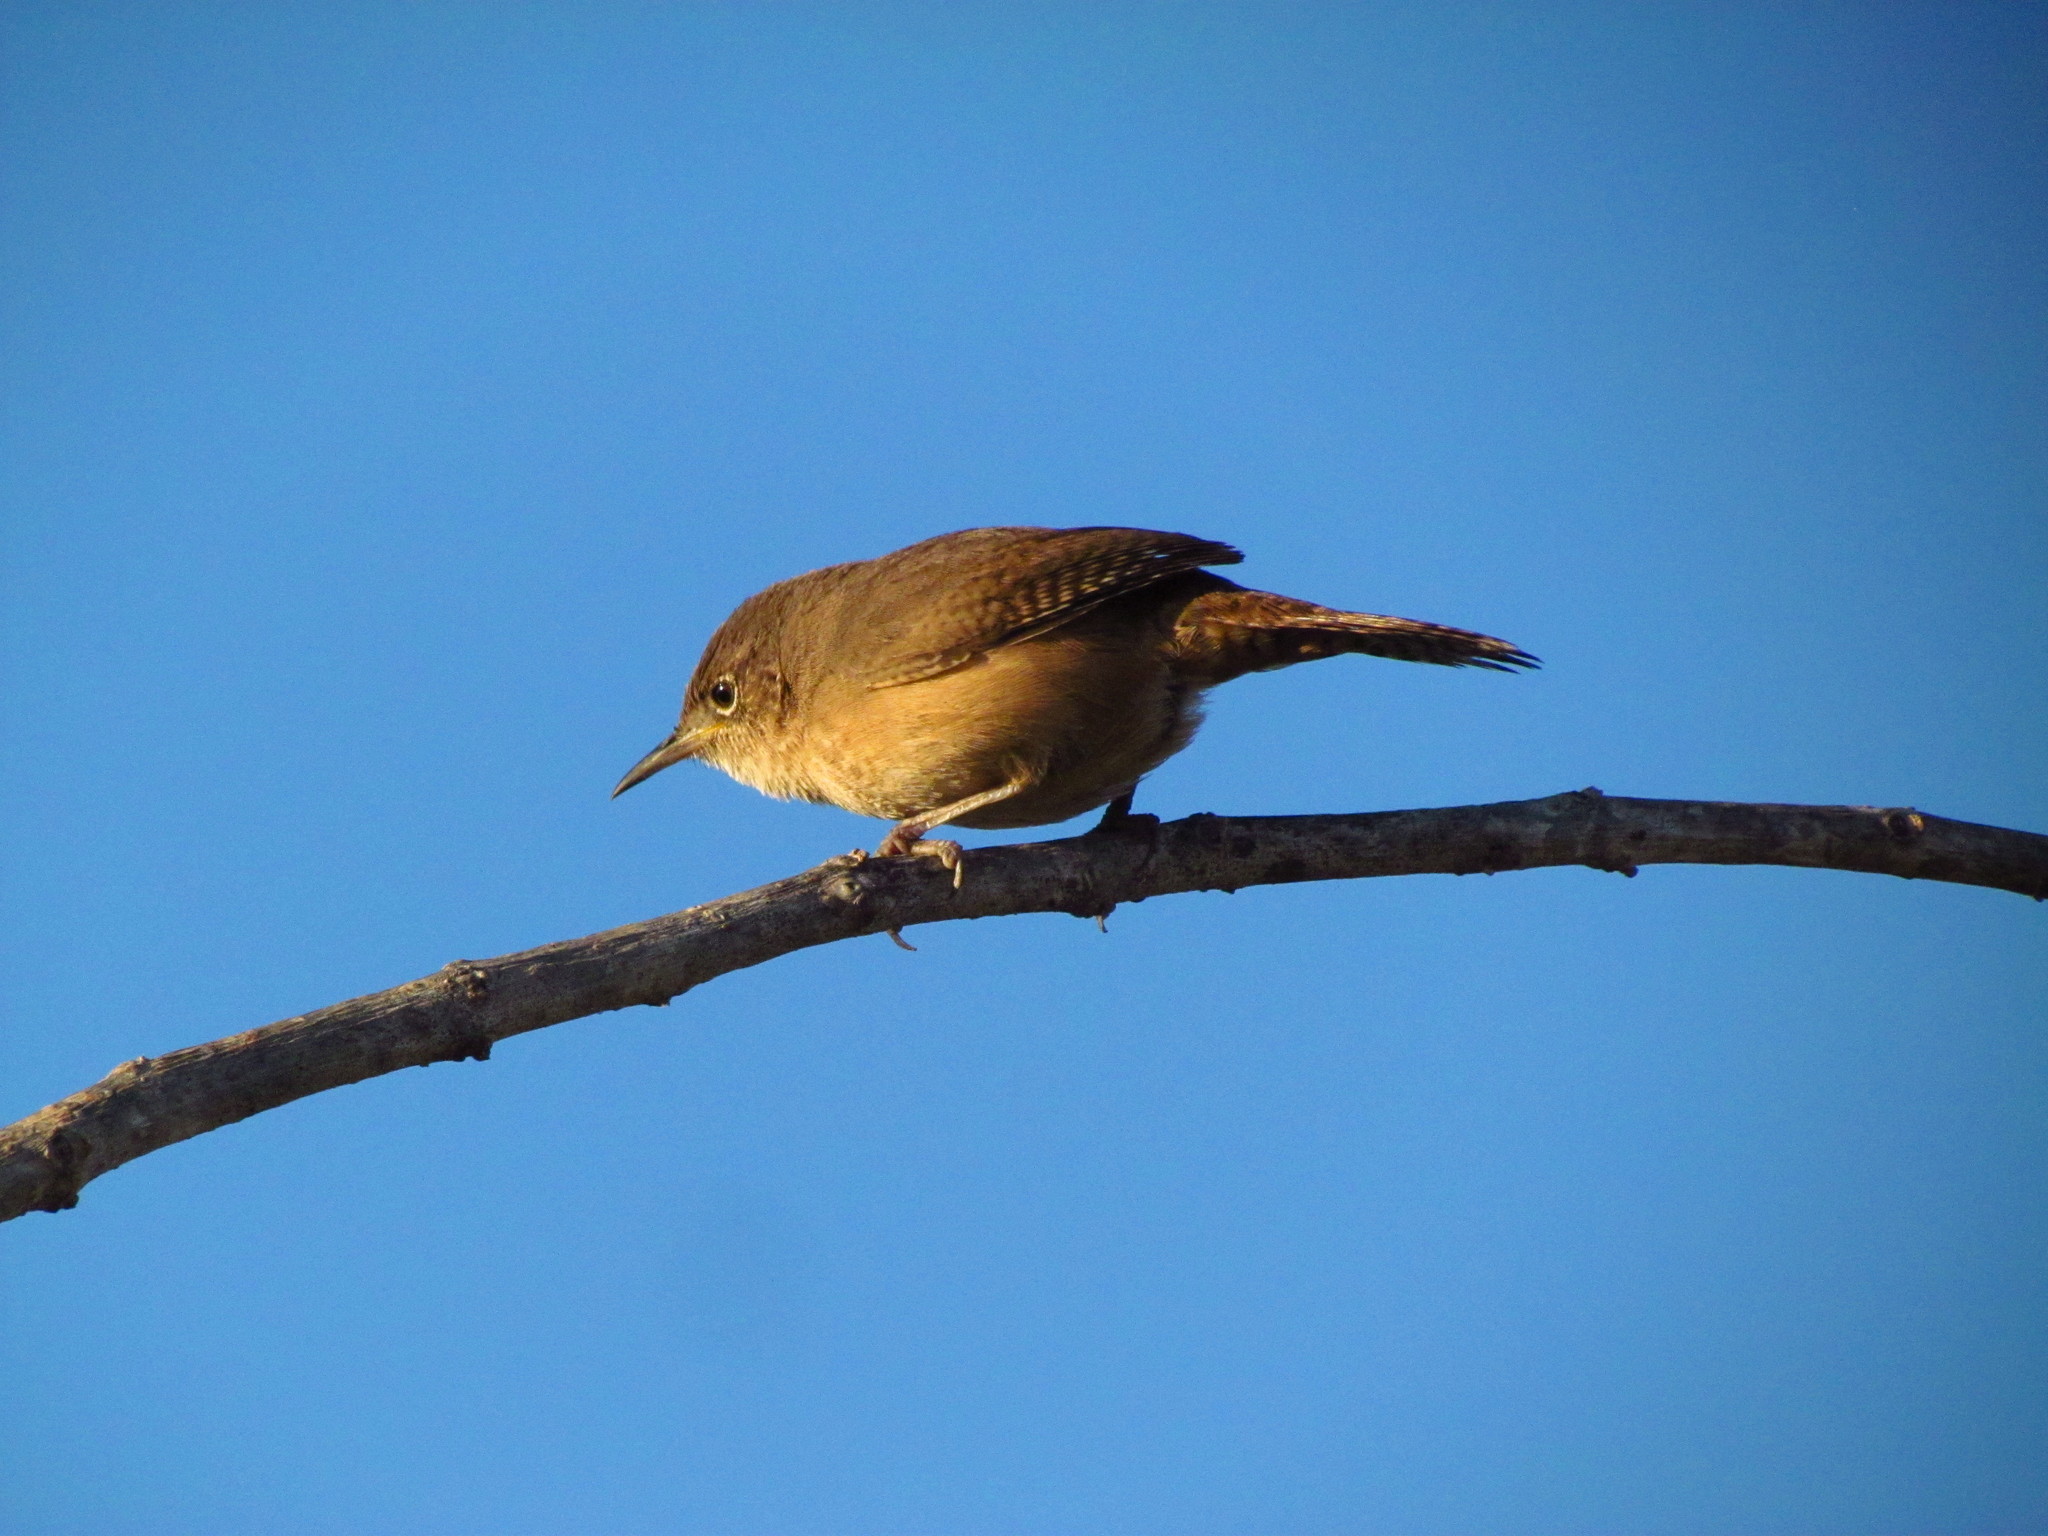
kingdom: Animalia
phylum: Chordata
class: Aves
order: Passeriformes
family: Troglodytidae
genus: Troglodytes
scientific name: Troglodytes aedon
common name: House wren
